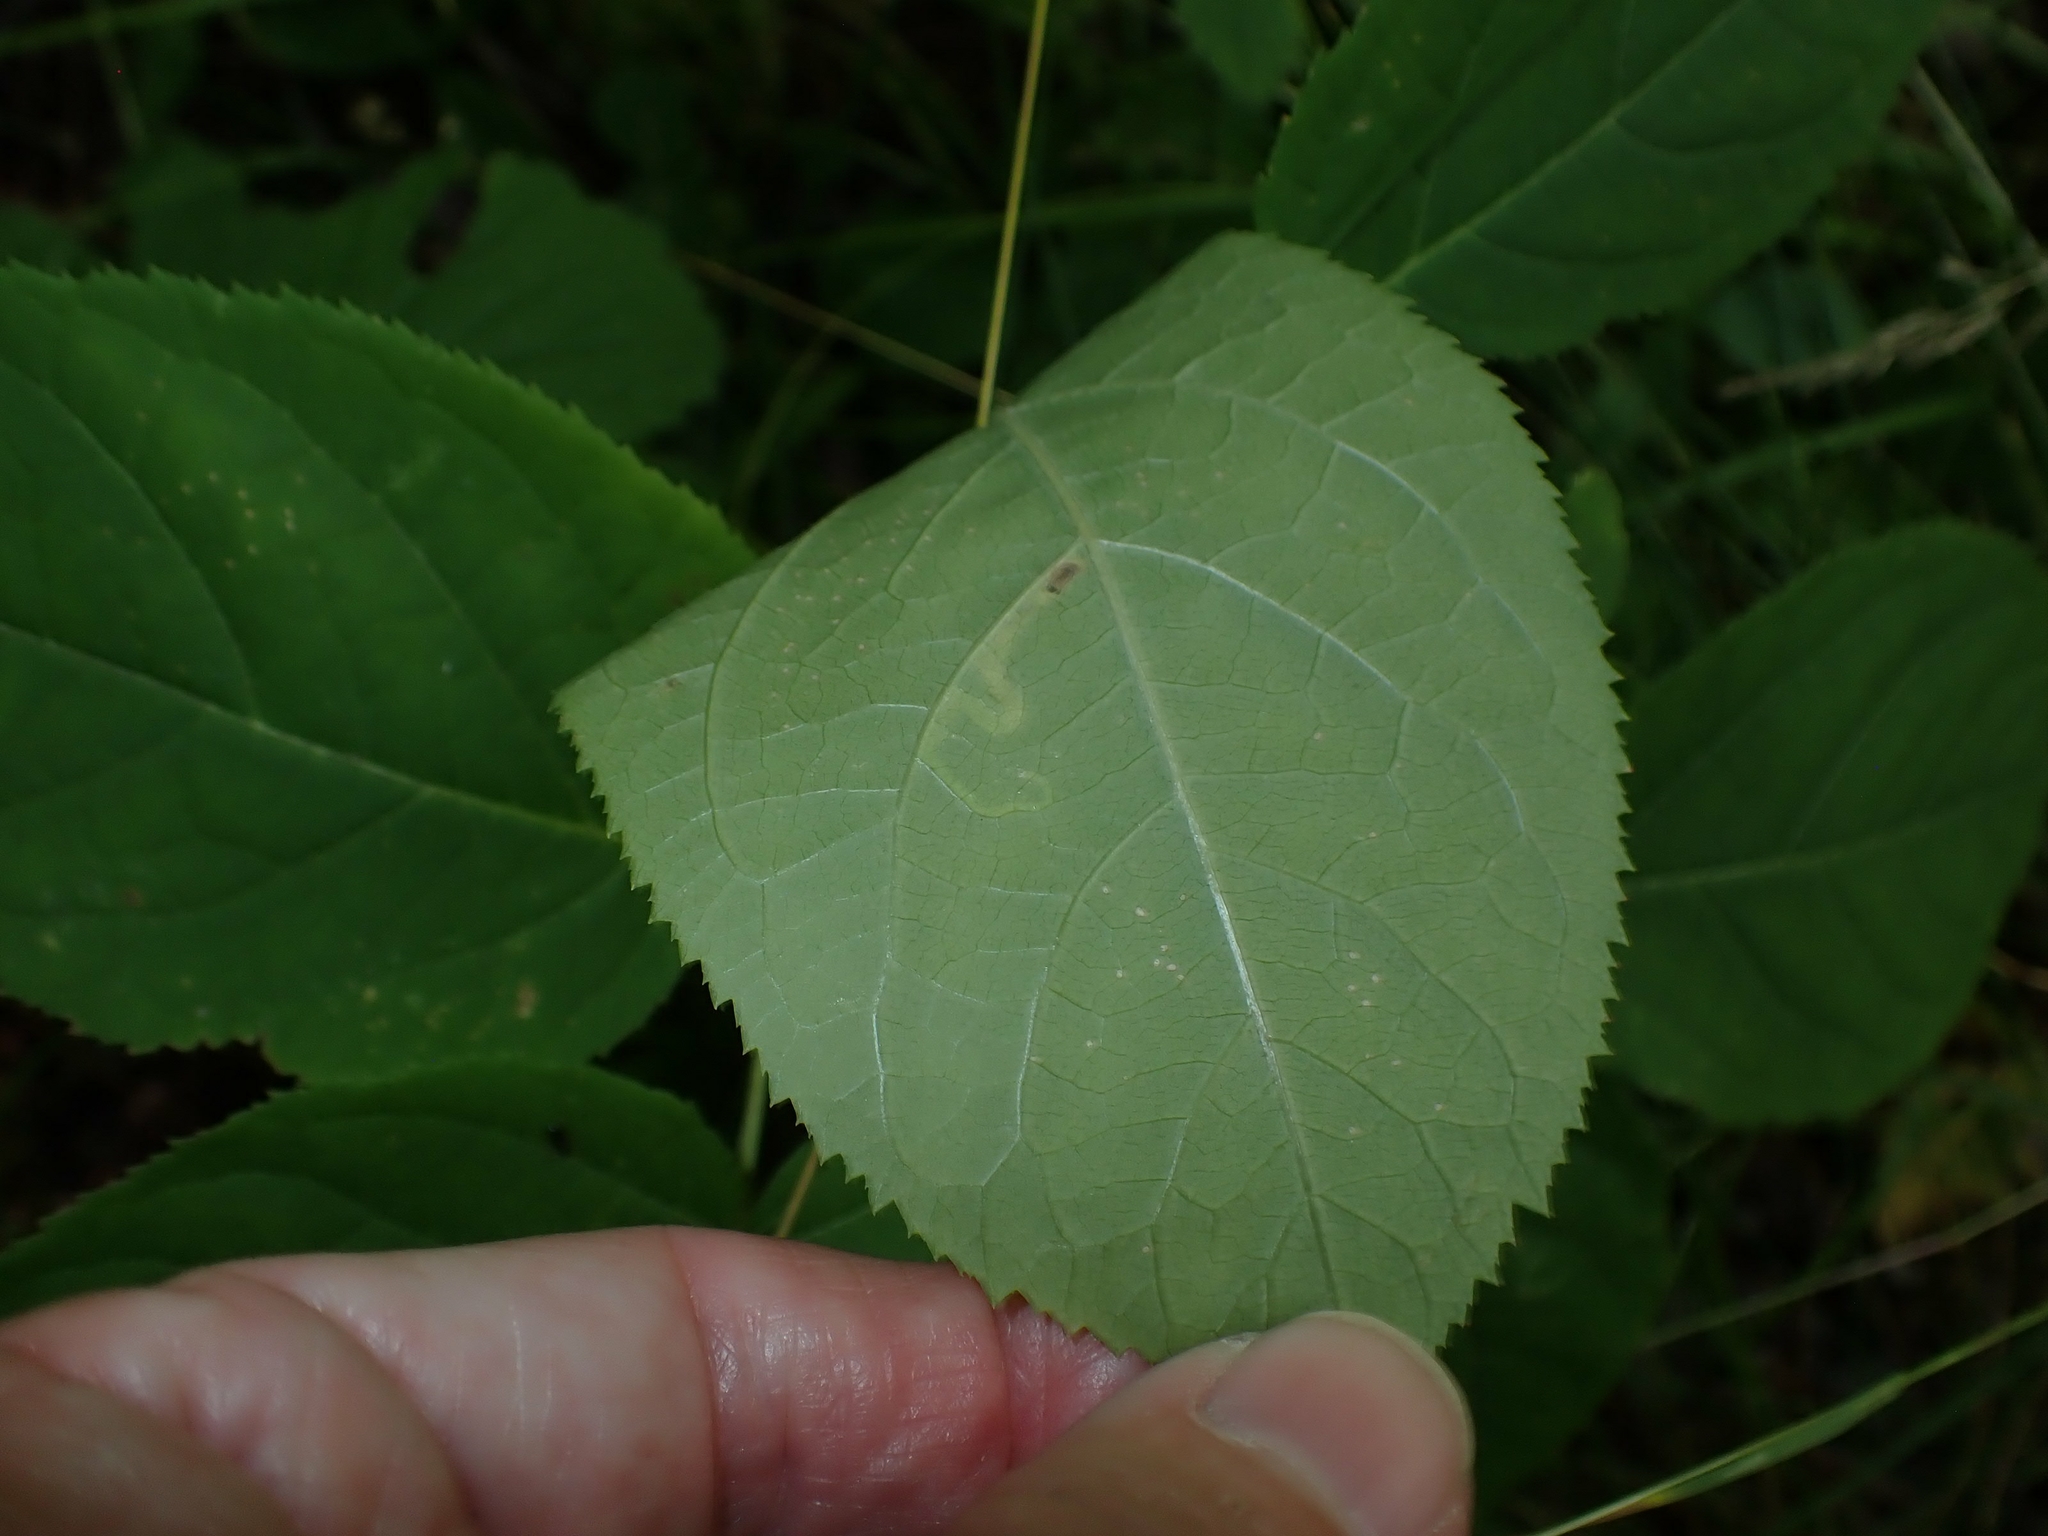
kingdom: Animalia
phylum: Arthropoda
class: Insecta
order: Diptera
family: Agromyzidae
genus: Phytomyza
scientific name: Phytomyza aralivora
